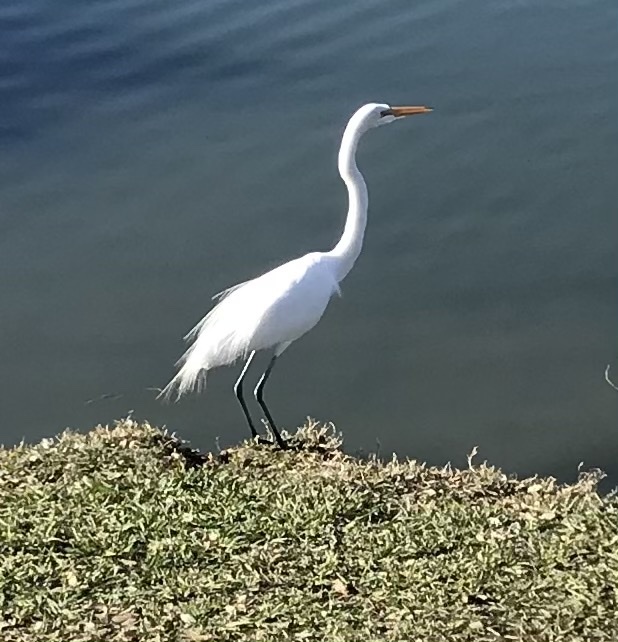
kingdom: Animalia
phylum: Chordata
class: Aves
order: Pelecaniformes
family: Ardeidae
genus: Ardea
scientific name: Ardea alba
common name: Great egret
